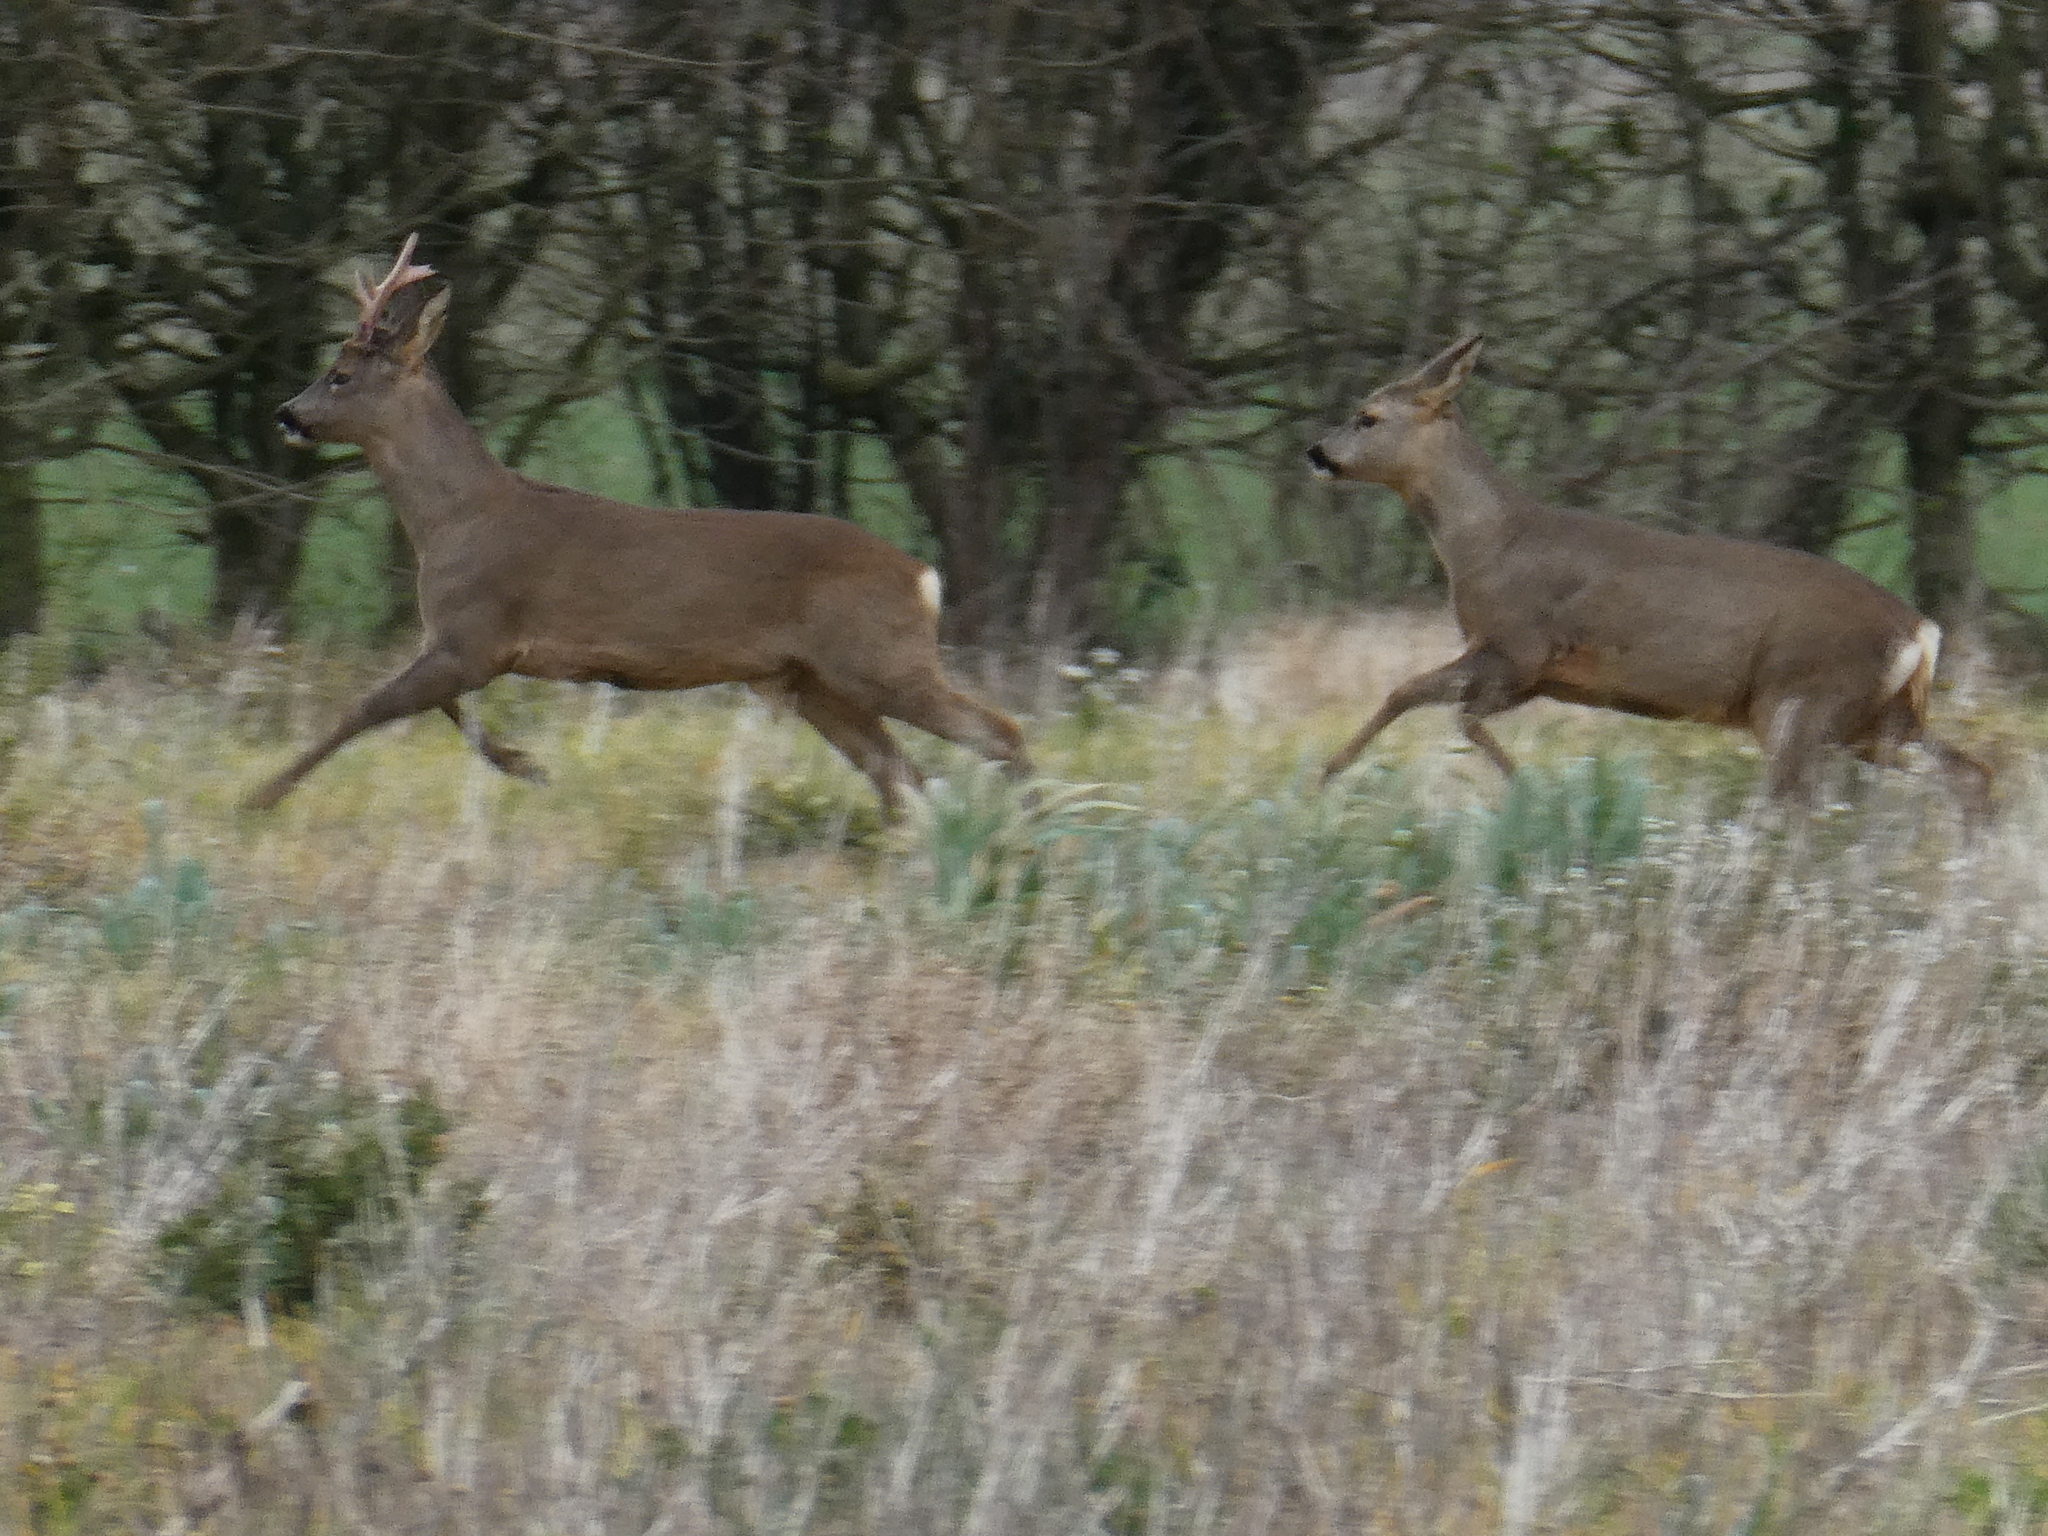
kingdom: Animalia
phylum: Chordata
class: Mammalia
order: Artiodactyla
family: Cervidae
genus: Capreolus
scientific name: Capreolus capreolus
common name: Western roe deer
